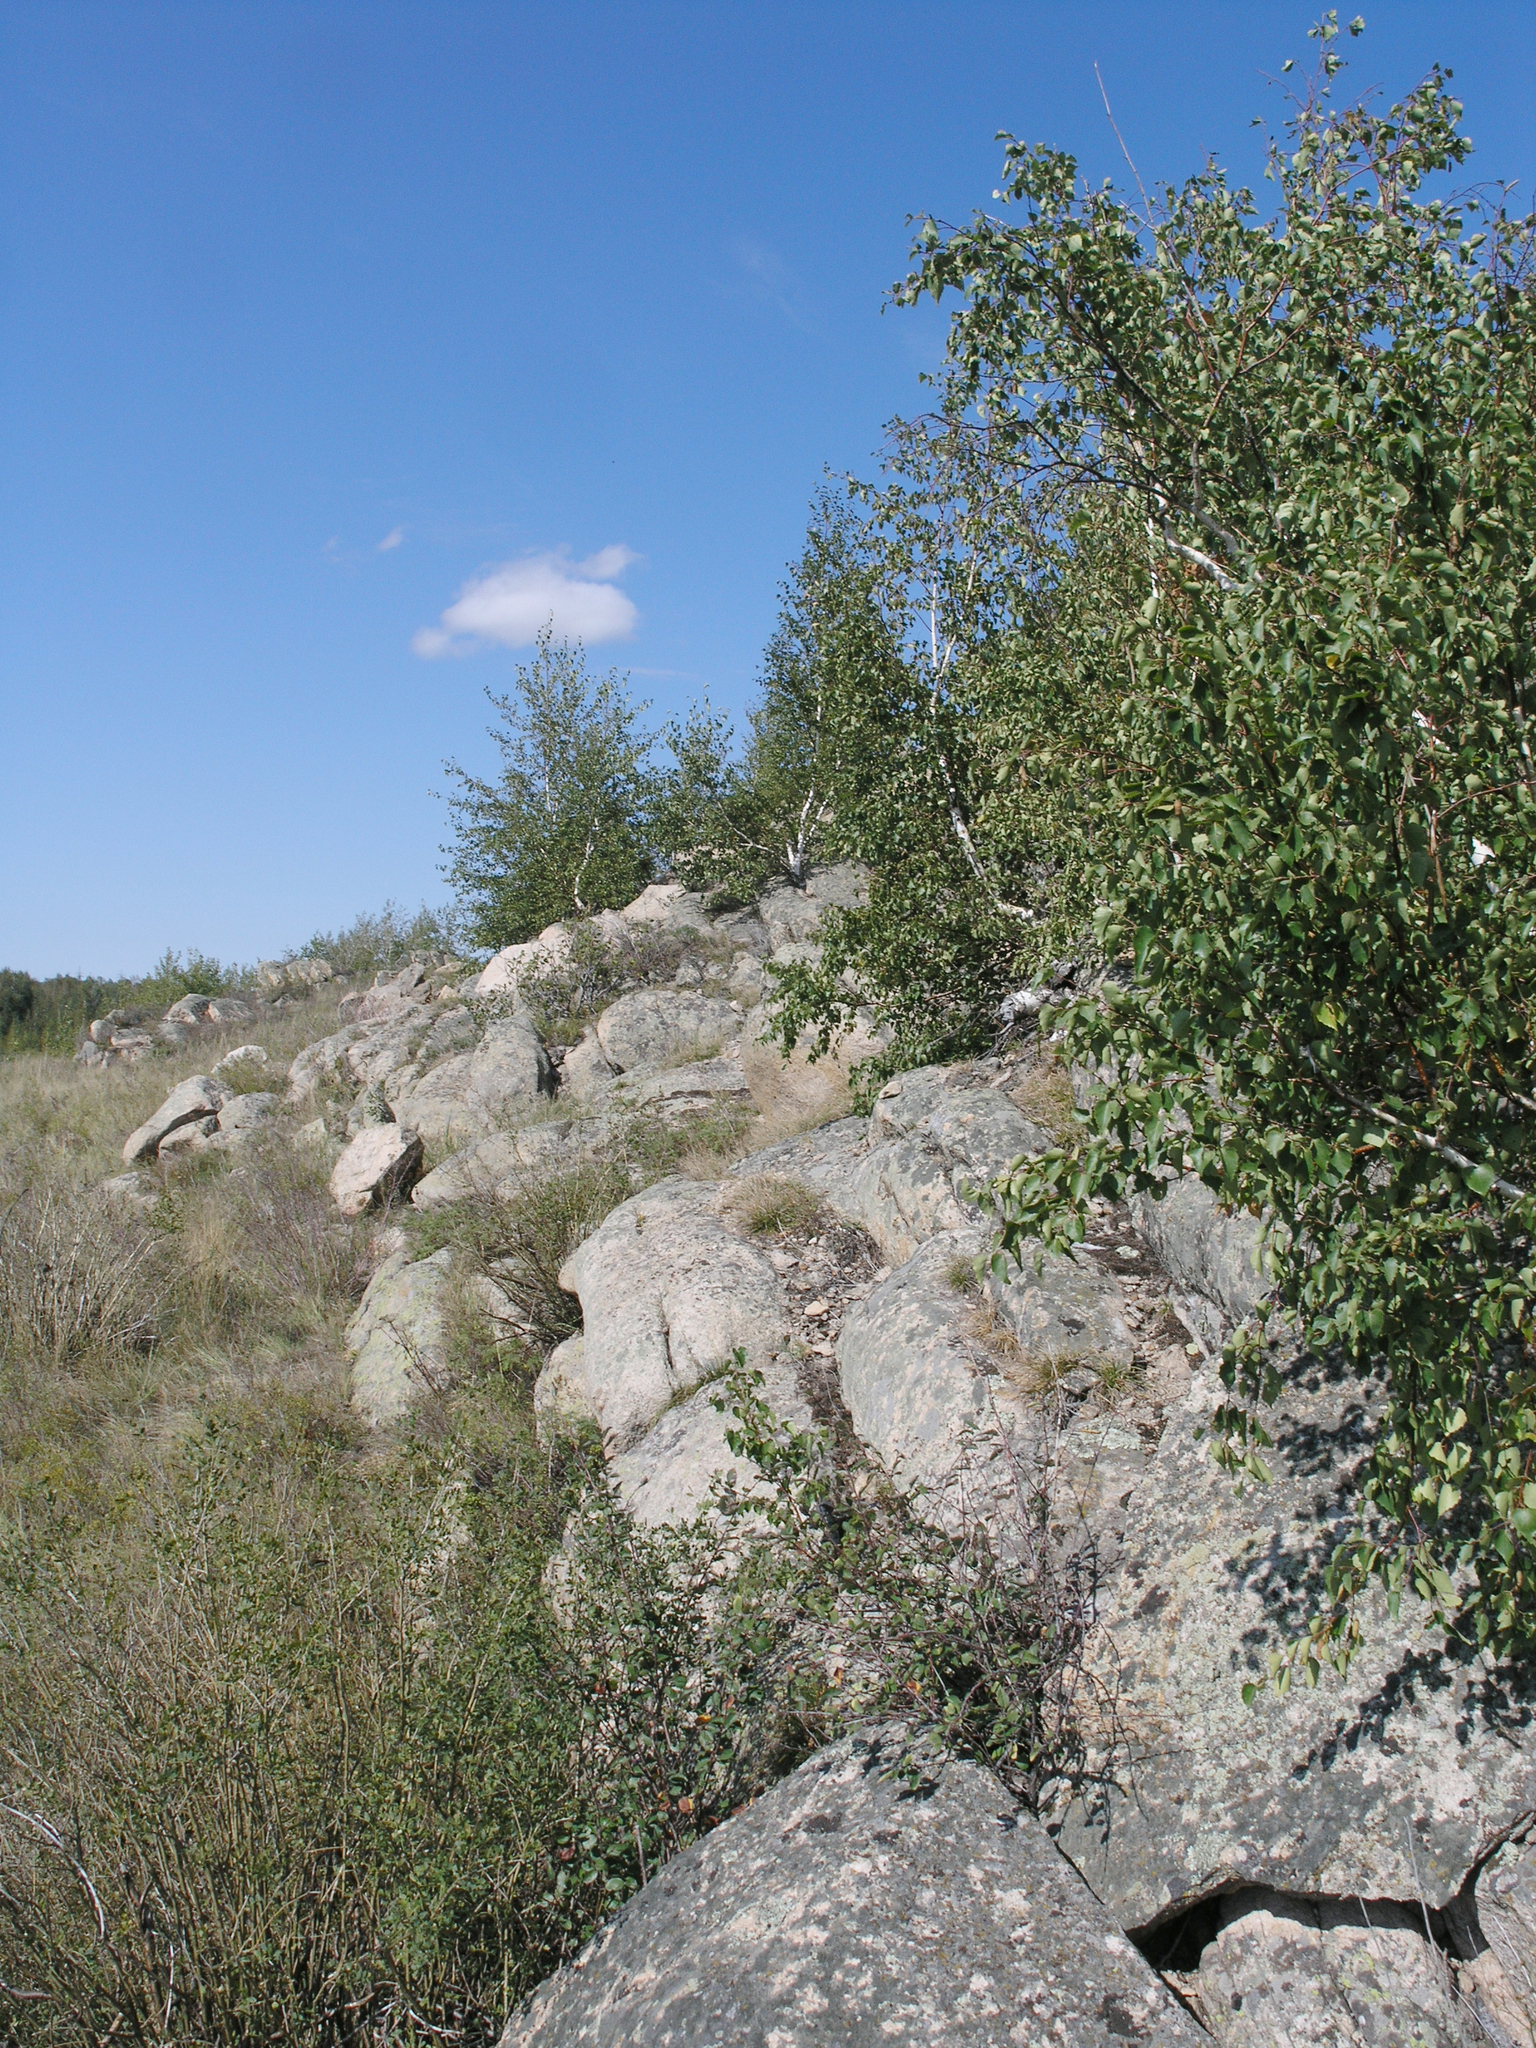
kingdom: Plantae
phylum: Tracheophyta
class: Magnoliopsida
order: Fagales
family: Betulaceae
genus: Betula
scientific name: Betula pendula
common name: Silver birch
